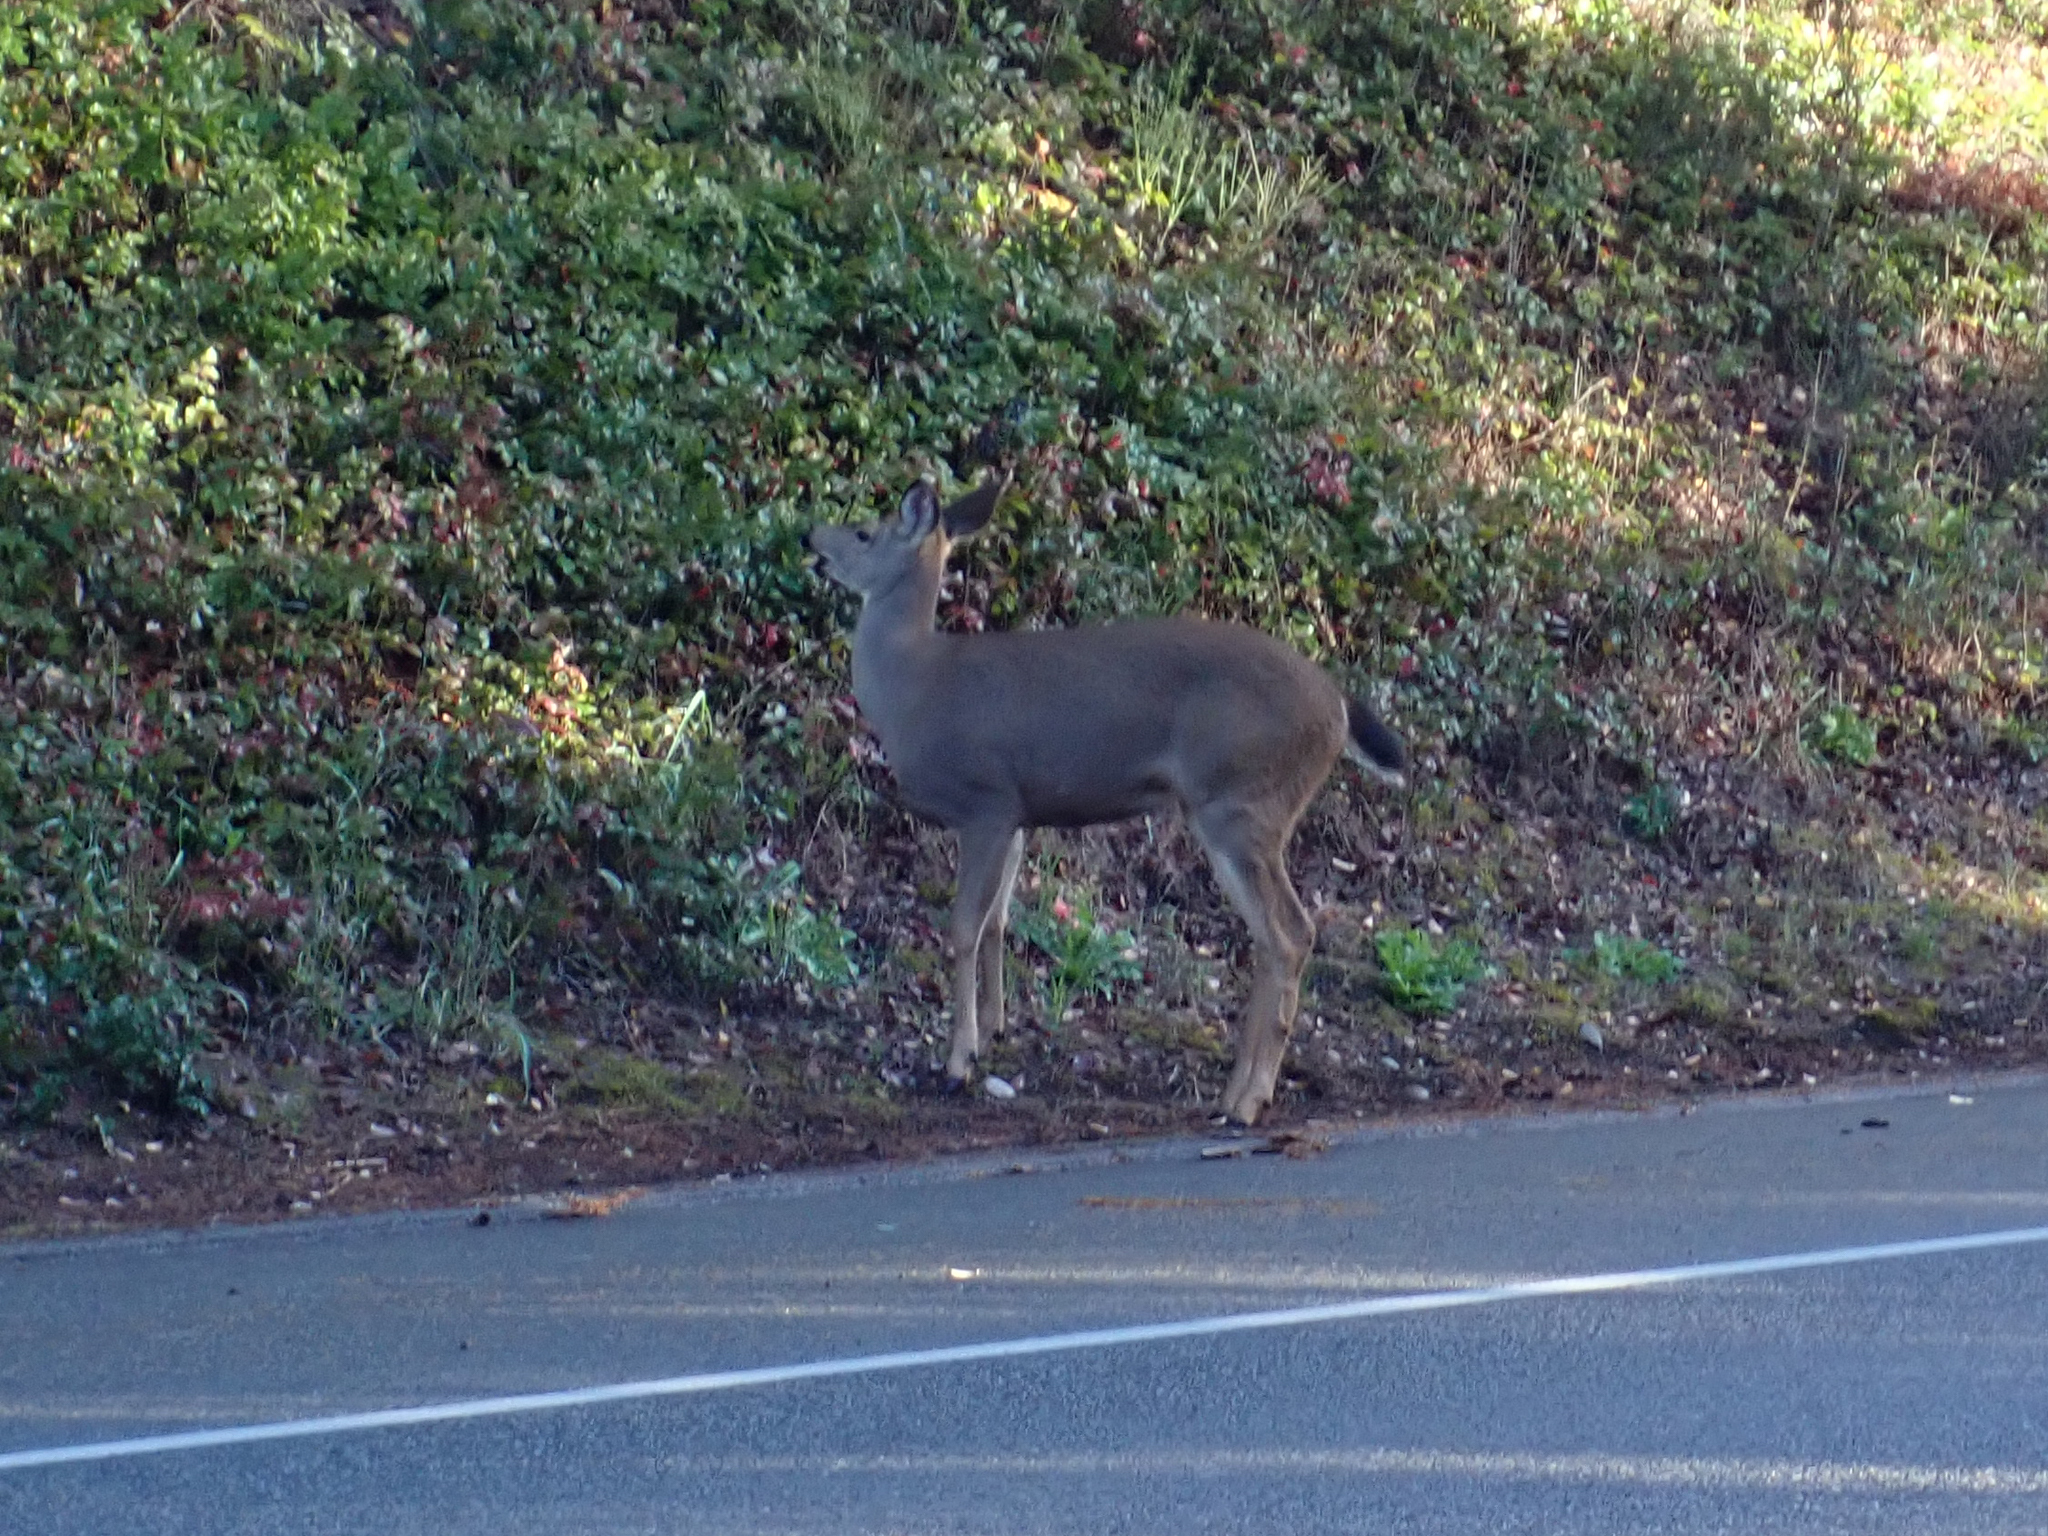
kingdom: Animalia
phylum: Chordata
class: Mammalia
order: Artiodactyla
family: Cervidae
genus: Odocoileus
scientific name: Odocoileus hemionus
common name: Mule deer
